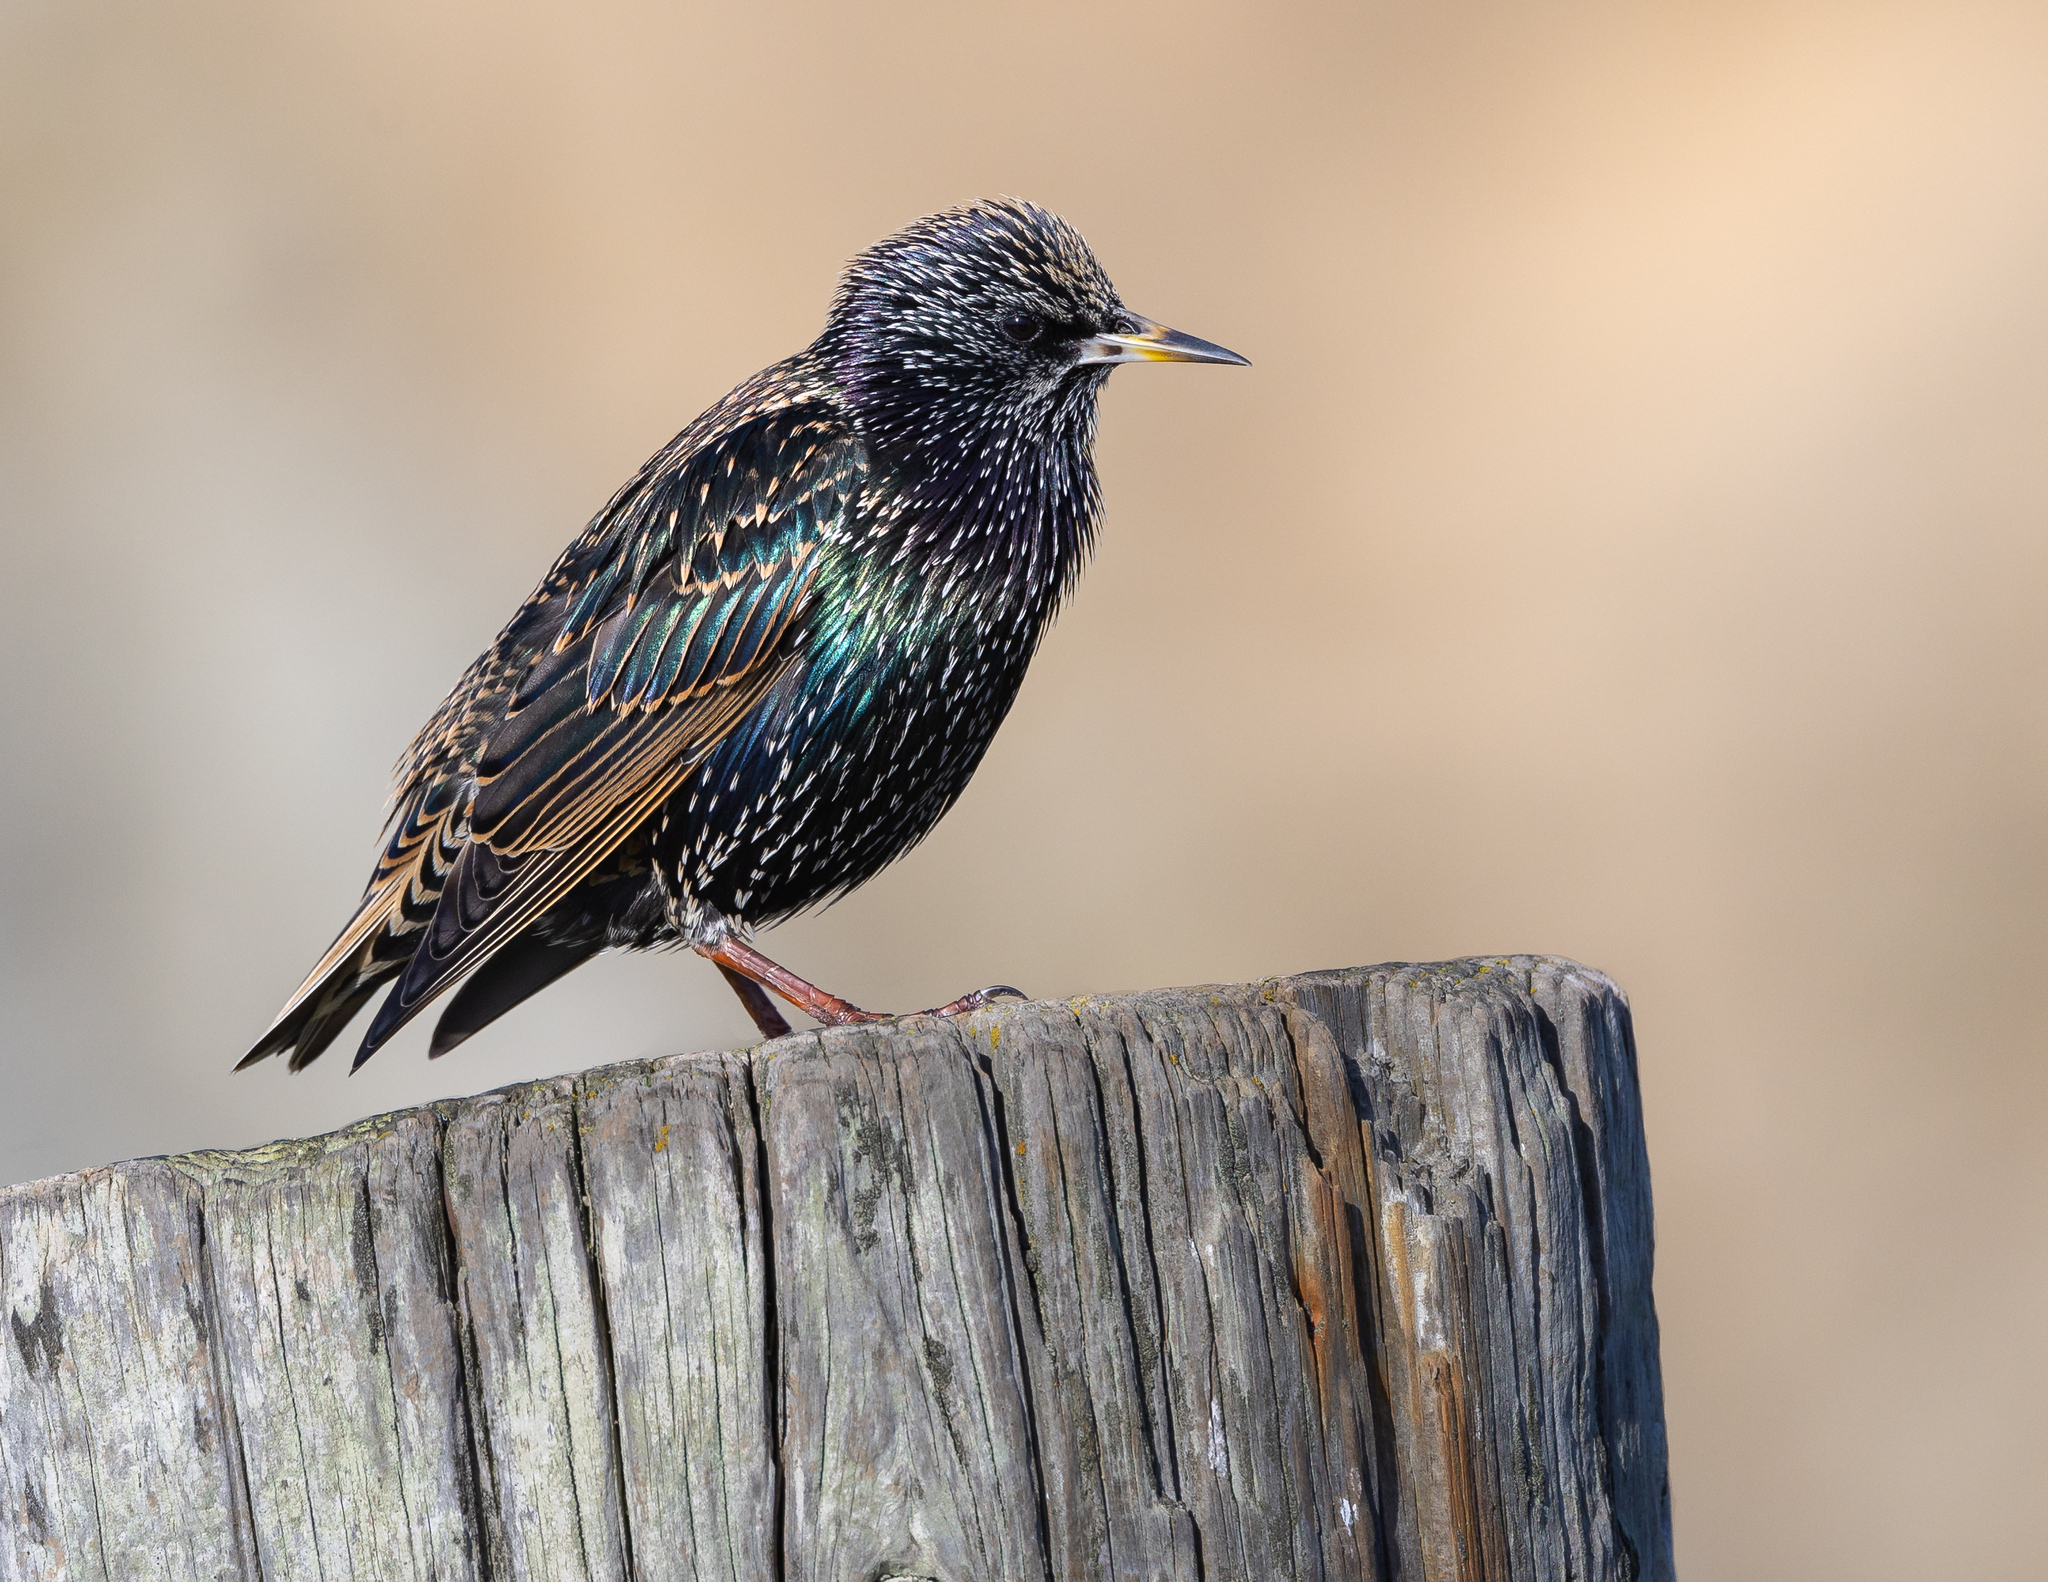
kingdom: Animalia
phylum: Chordata
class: Aves
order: Passeriformes
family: Sturnidae
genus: Sturnus
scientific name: Sturnus vulgaris
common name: Common starling
